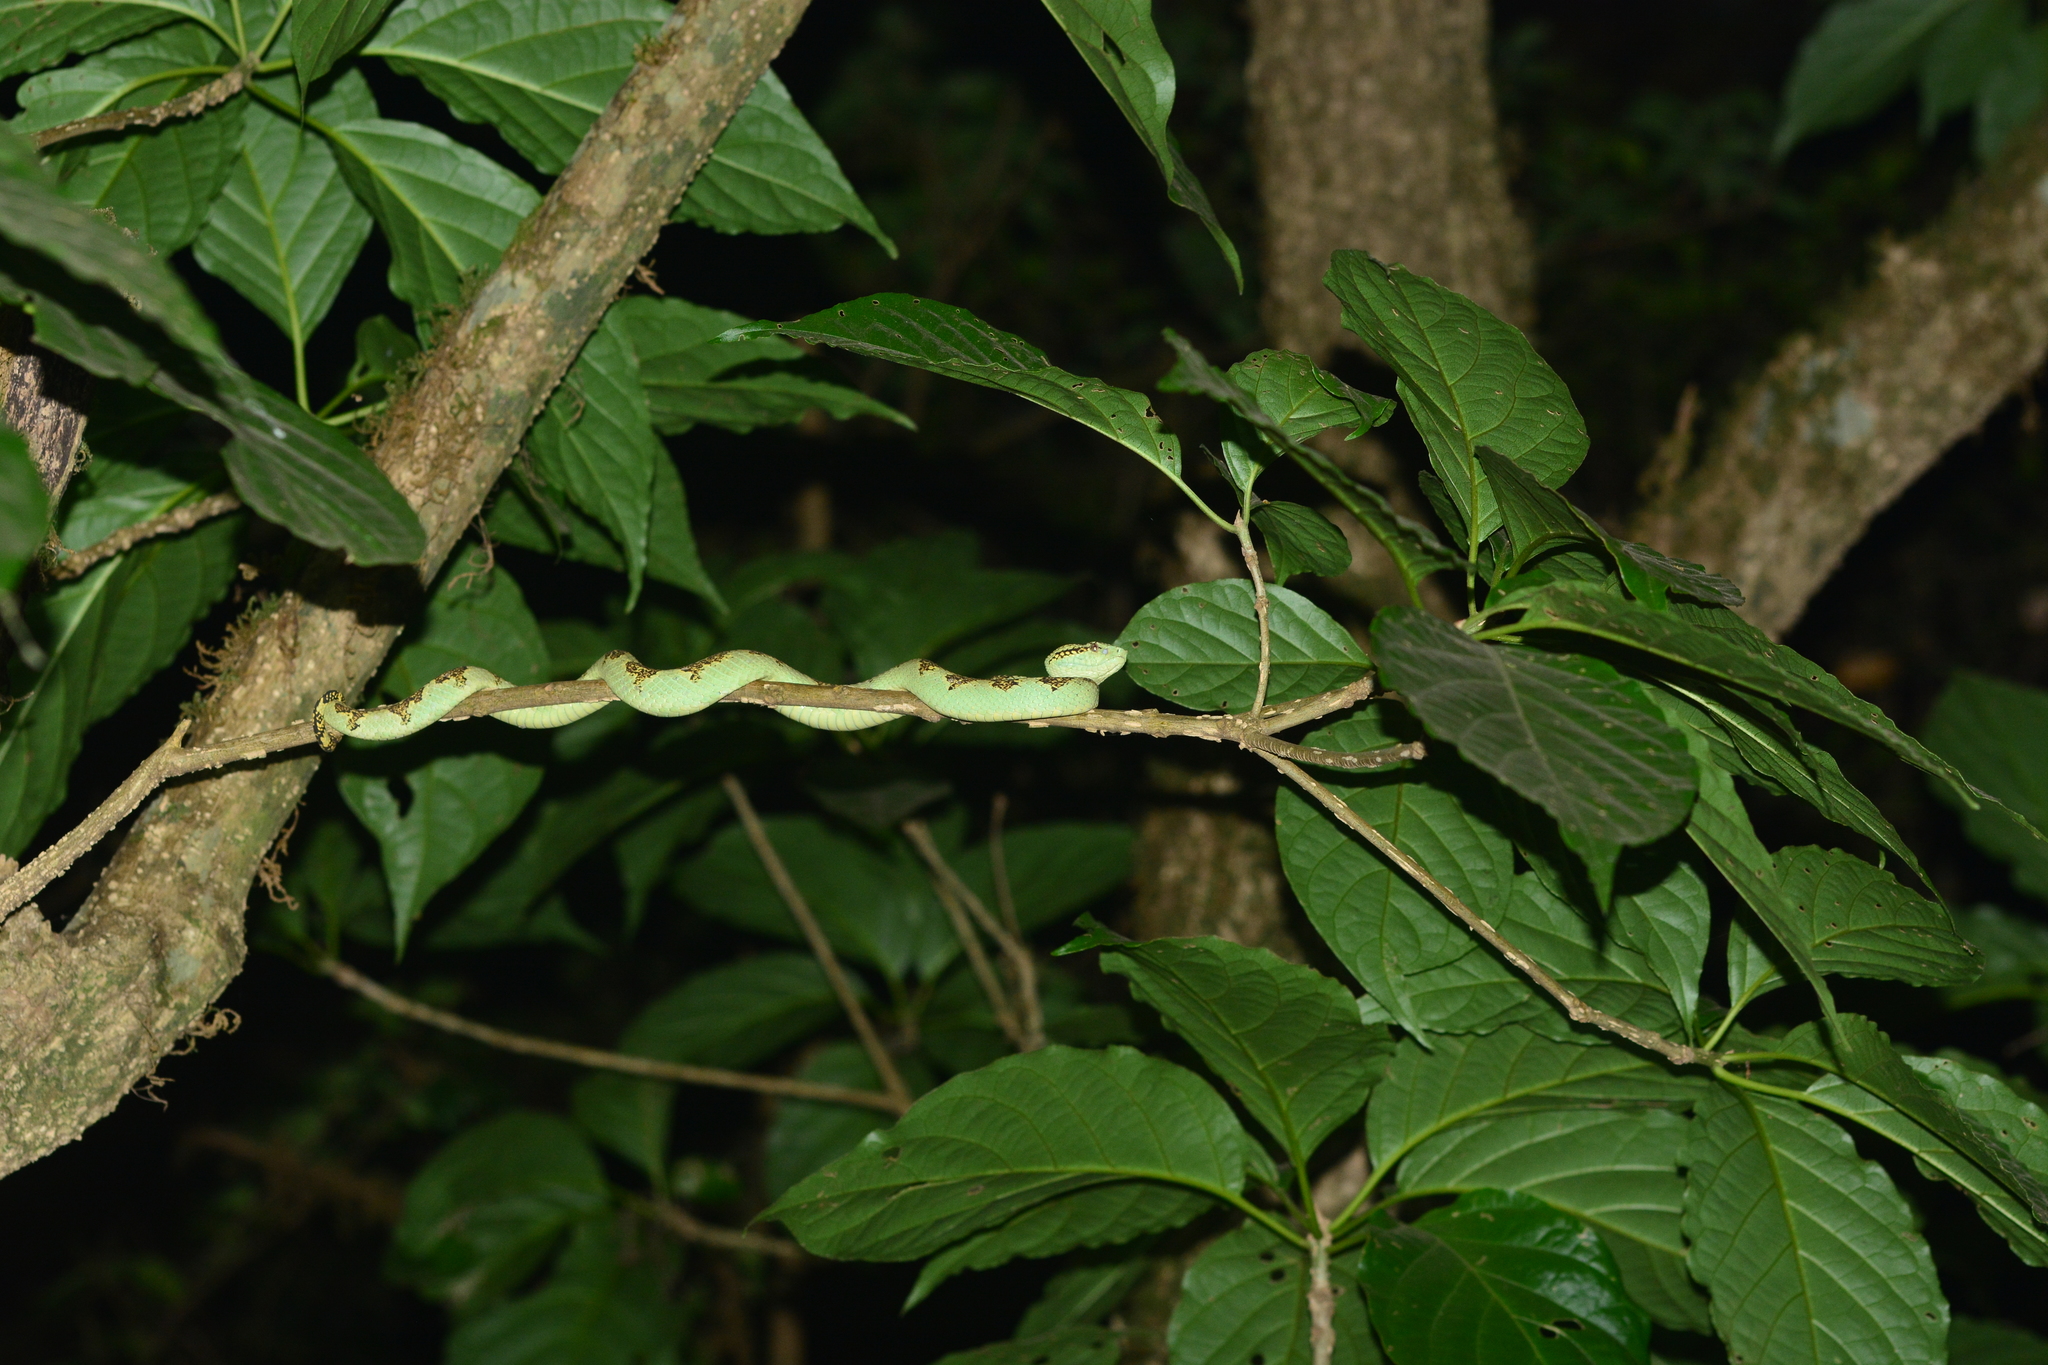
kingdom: Animalia
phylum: Chordata
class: Squamata
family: Viperidae
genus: Craspedocephalus
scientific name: Craspedocephalus malabaricus
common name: Malabarian pit viper
